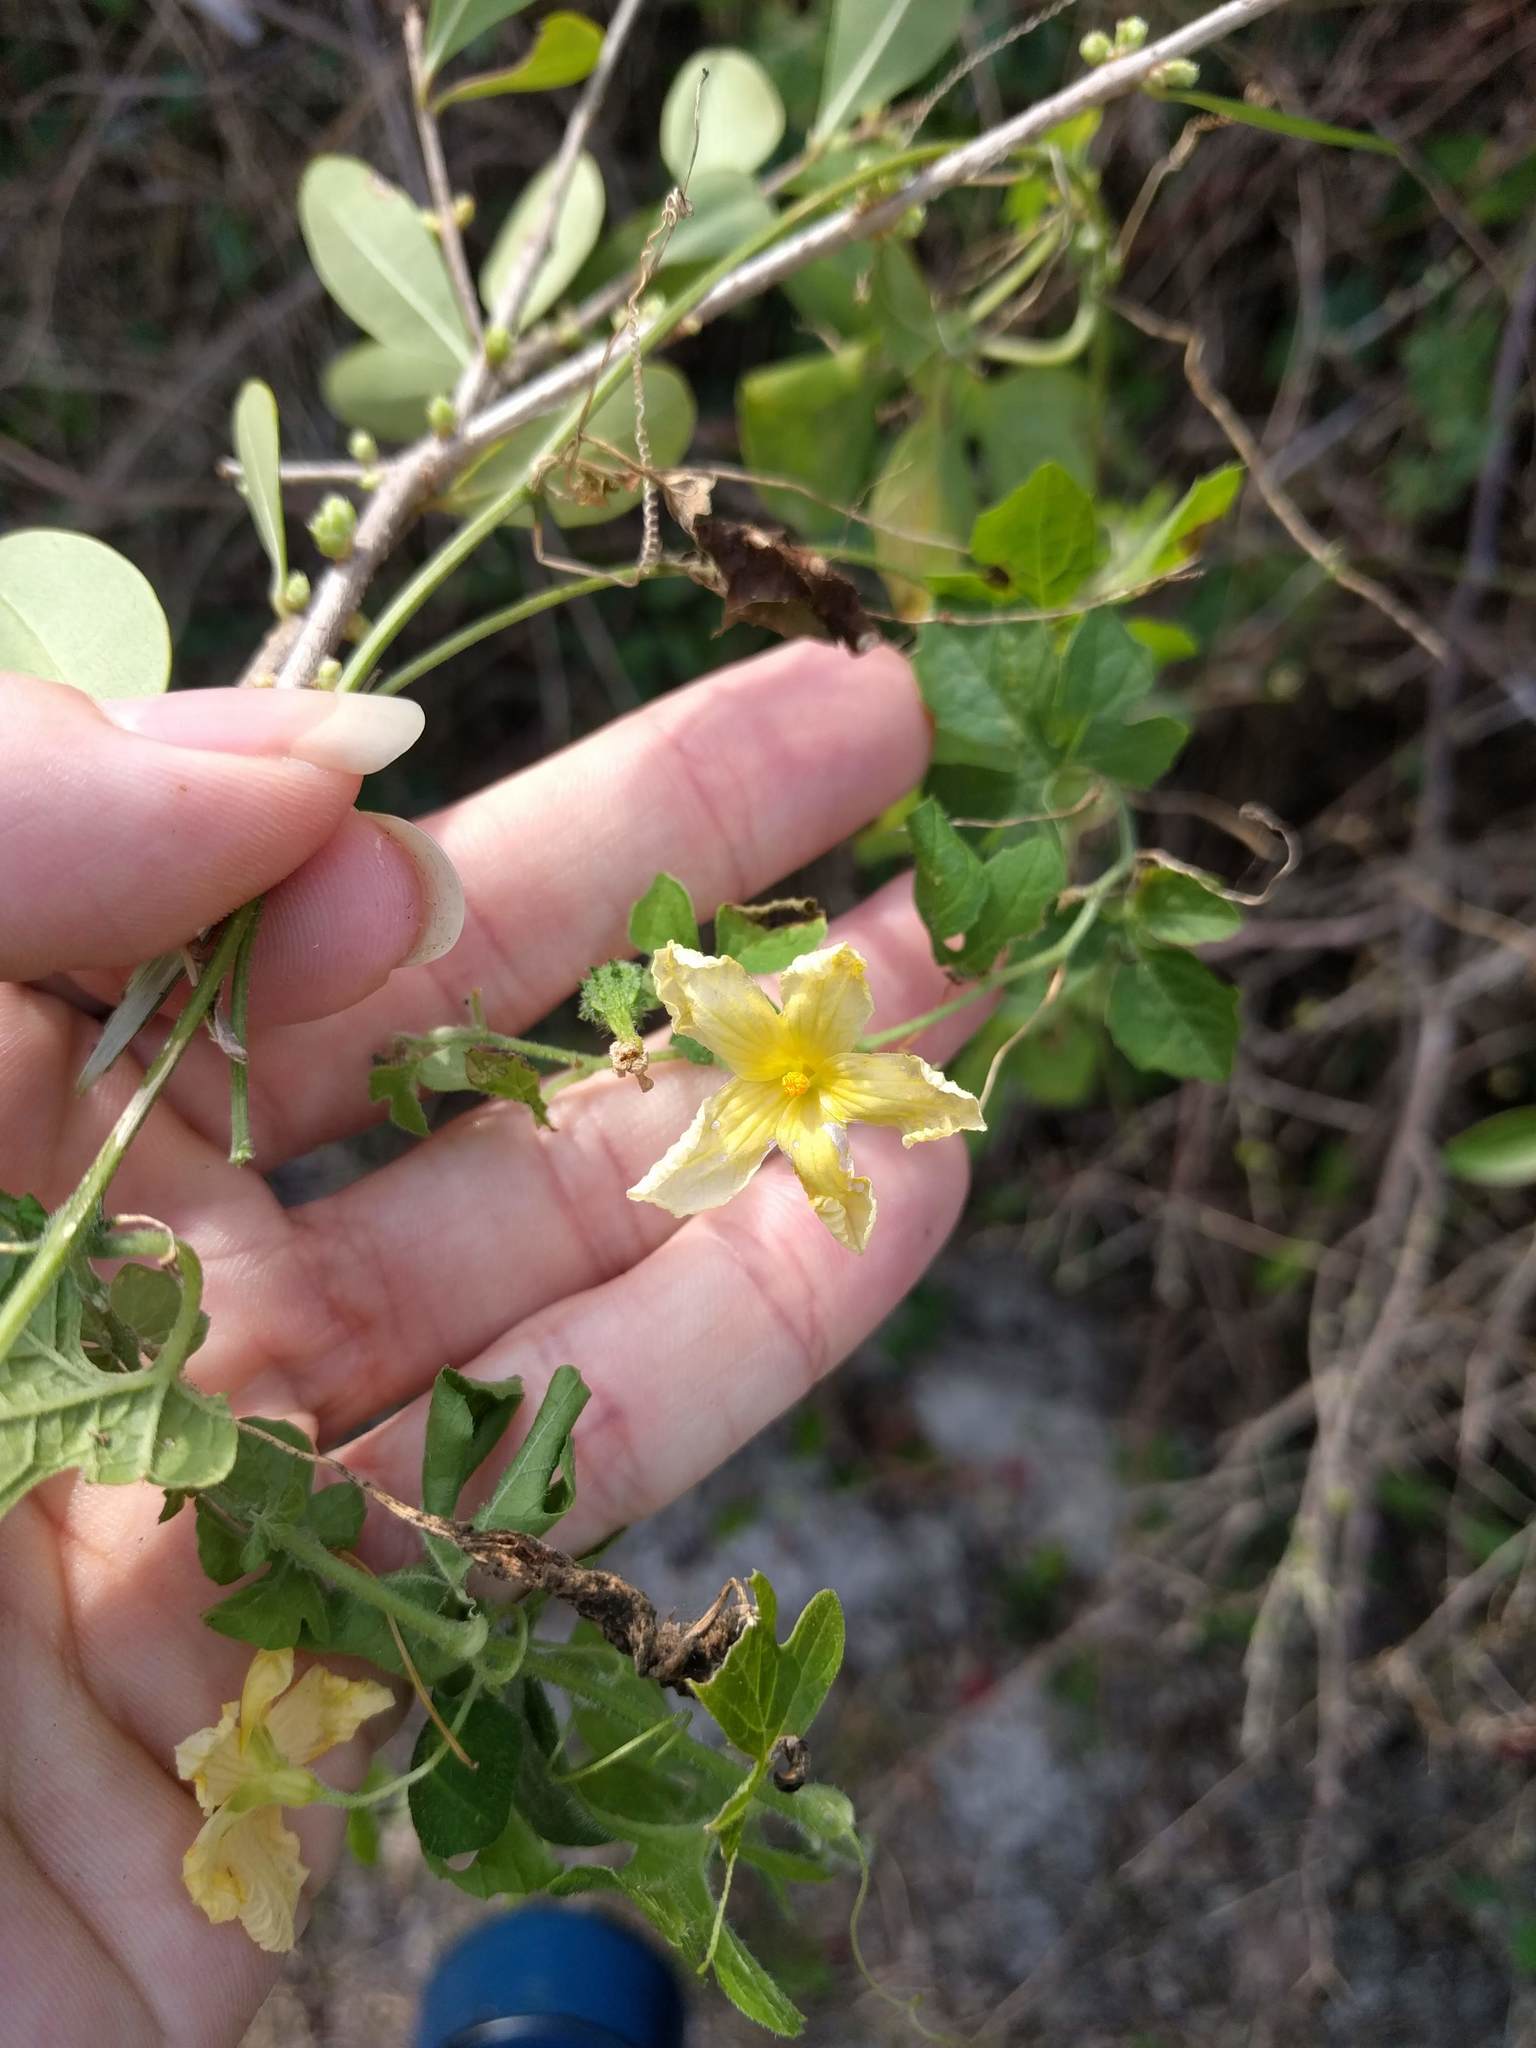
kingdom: Plantae
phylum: Tracheophyta
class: Magnoliopsida
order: Cucurbitales
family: Cucurbitaceae
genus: Momordica
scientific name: Momordica charantia
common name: Balsampear
